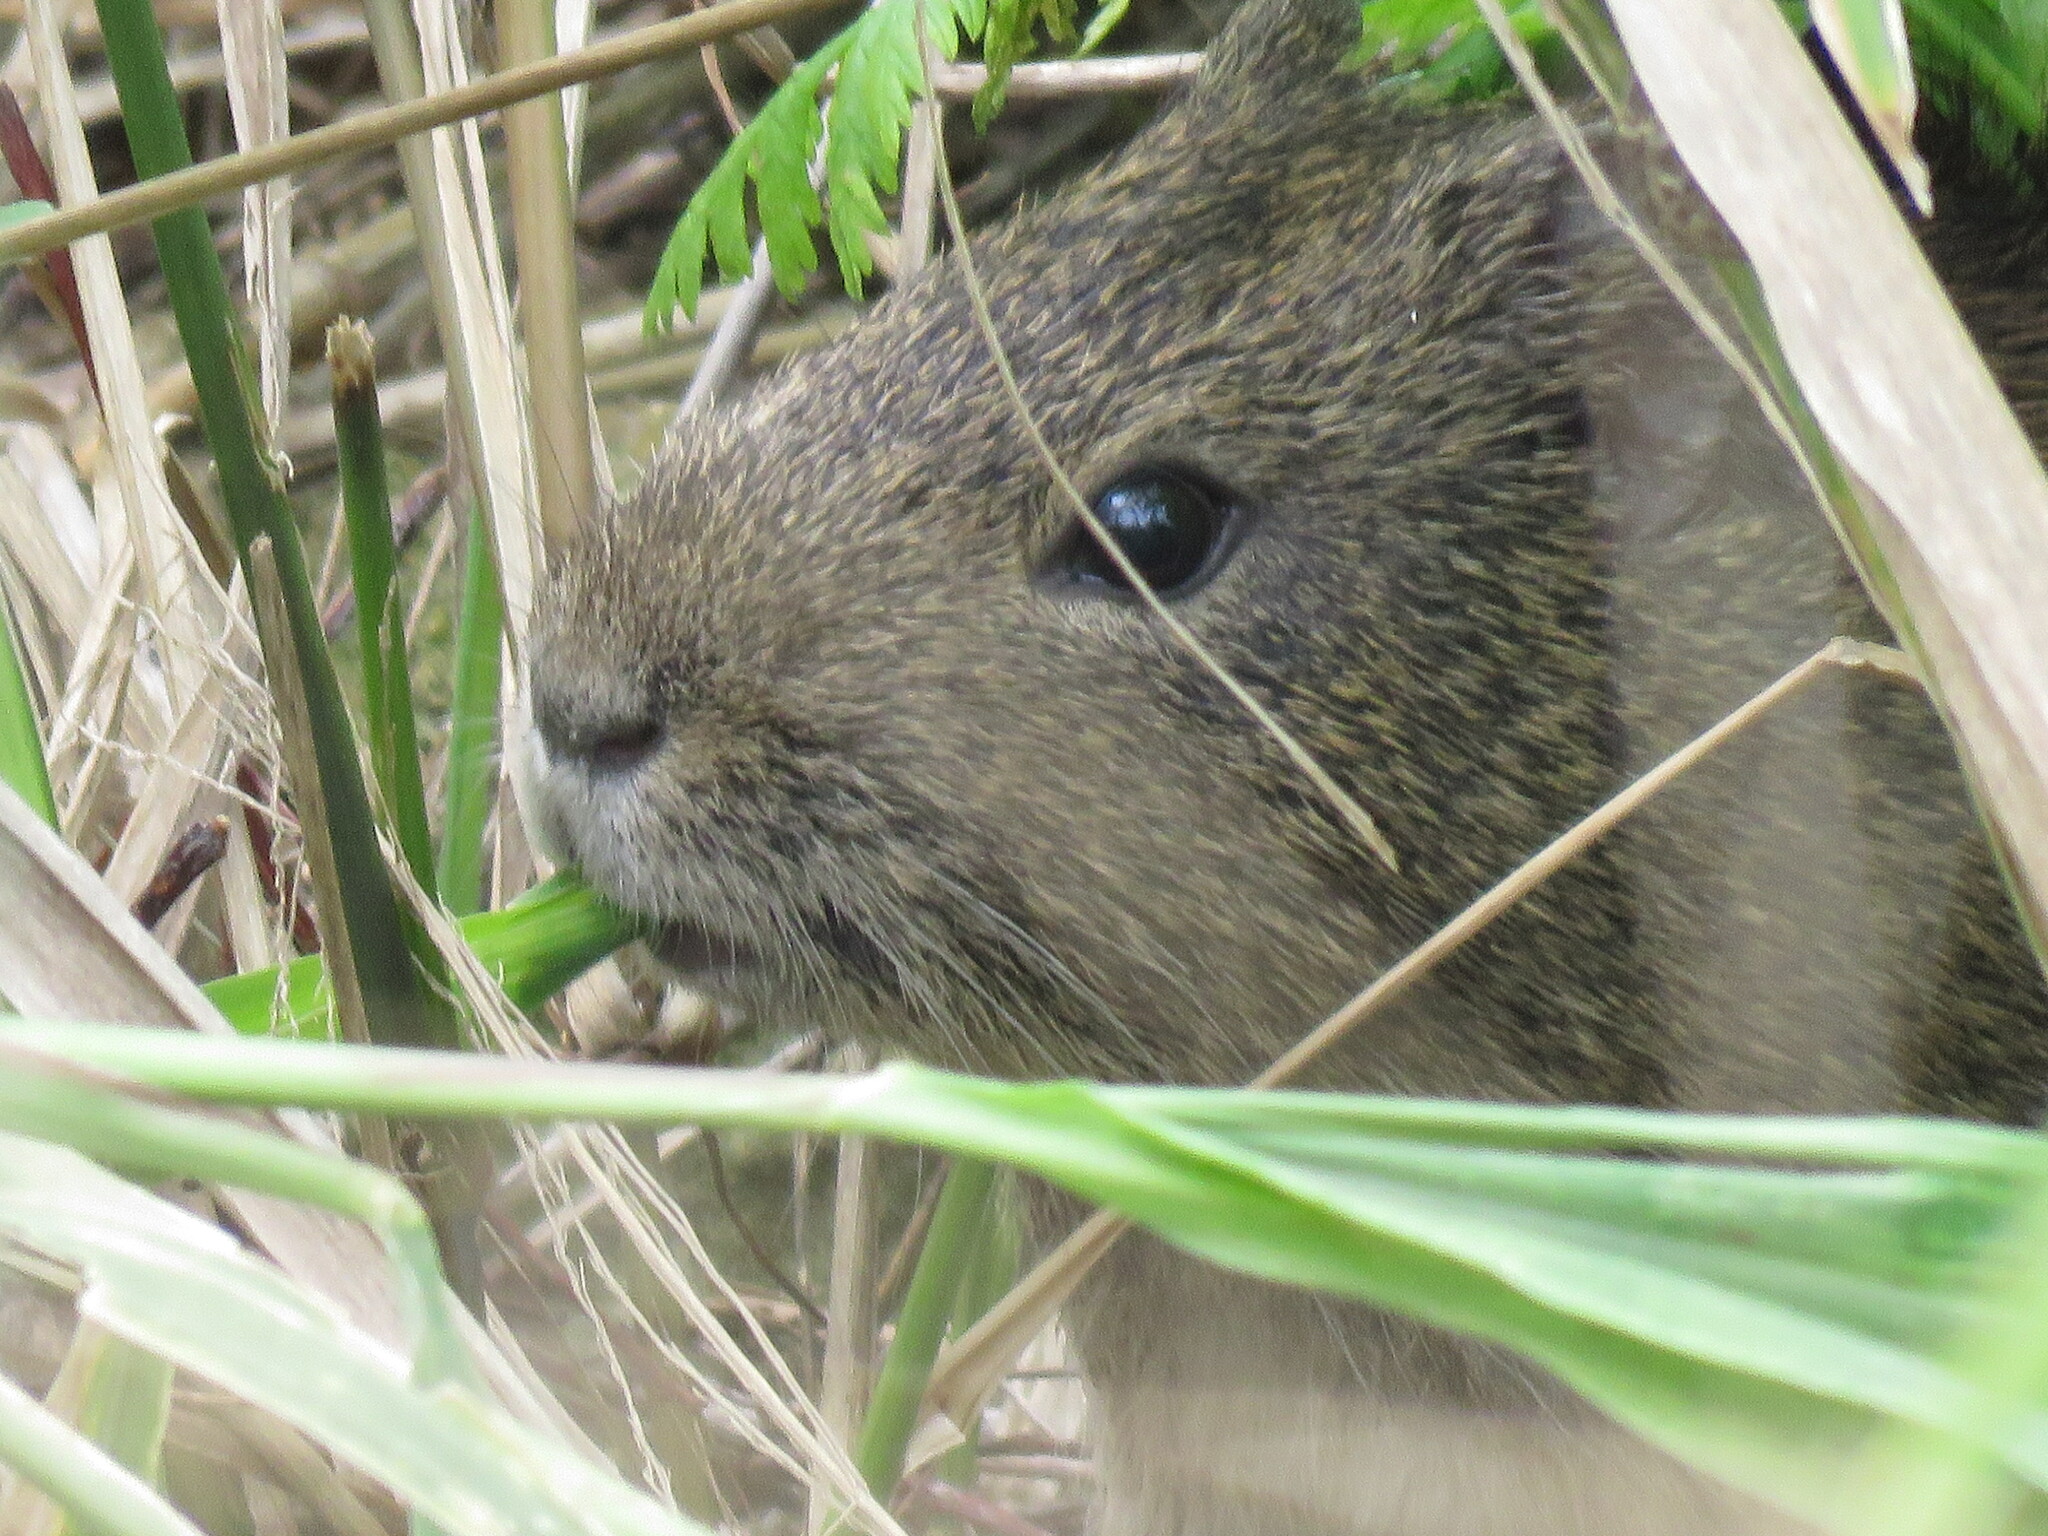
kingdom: Animalia
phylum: Chordata
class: Mammalia
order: Rodentia
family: Caviidae
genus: Cavia
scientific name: Cavia aperea
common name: Brazilian guinea pig
